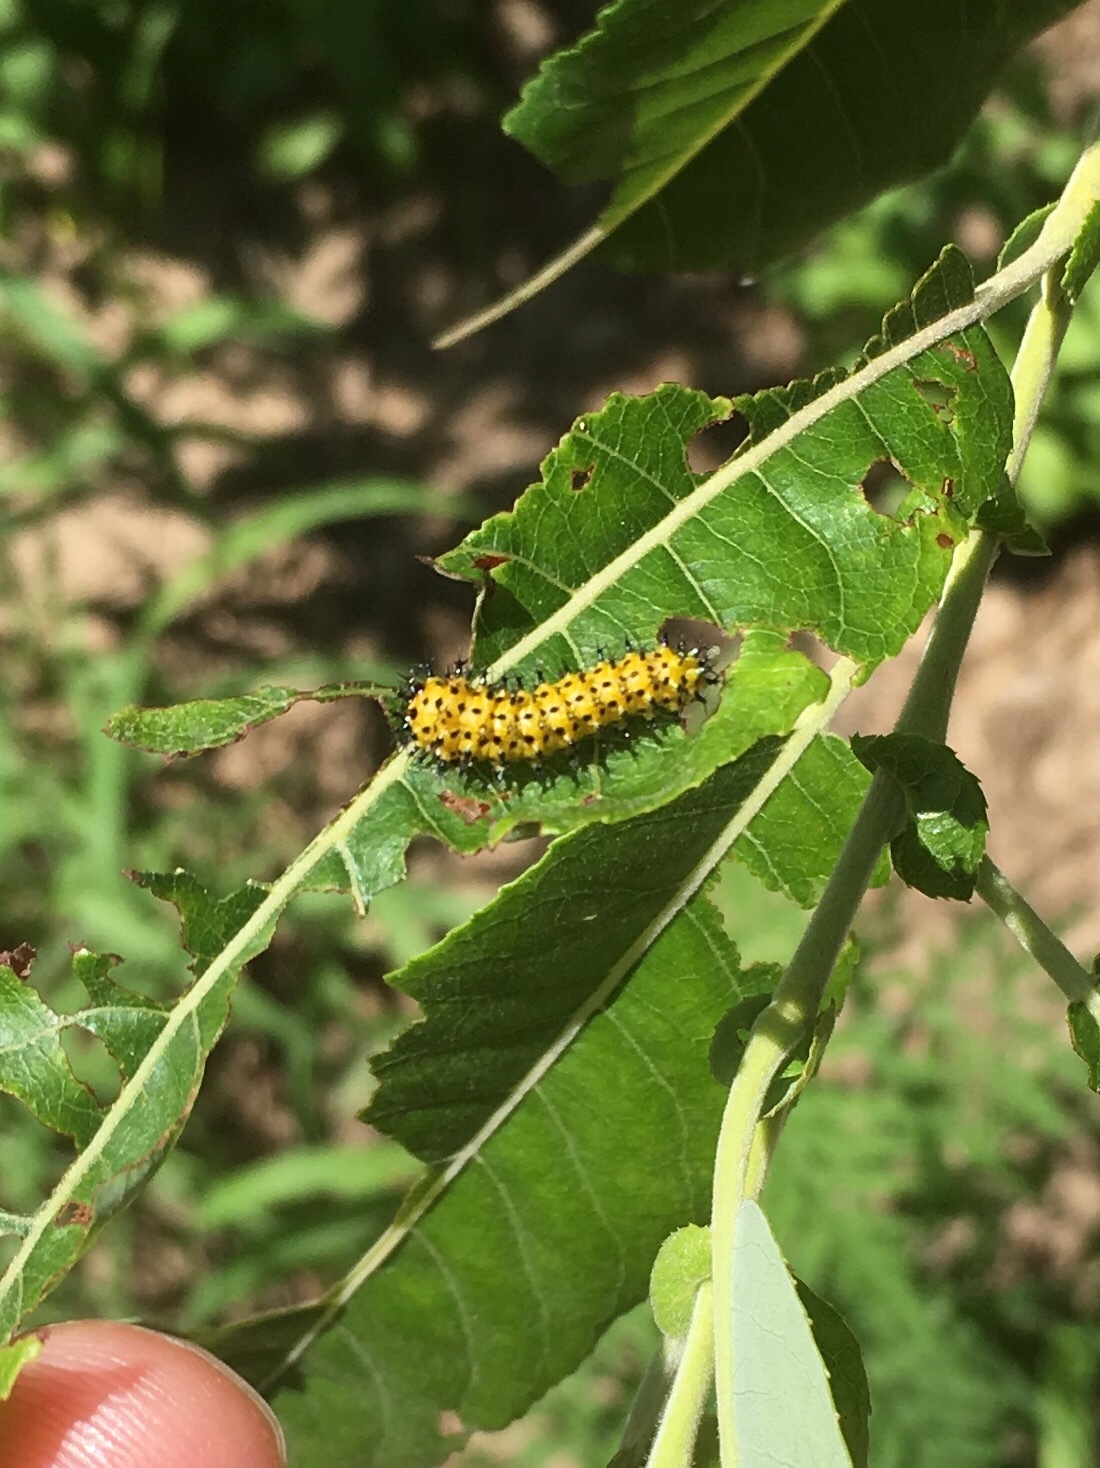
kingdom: Animalia
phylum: Arthropoda
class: Insecta
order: Lepidoptera
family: Saturniidae
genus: Hyalophora
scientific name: Hyalophora cecropia
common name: Cecropia silkmoth
